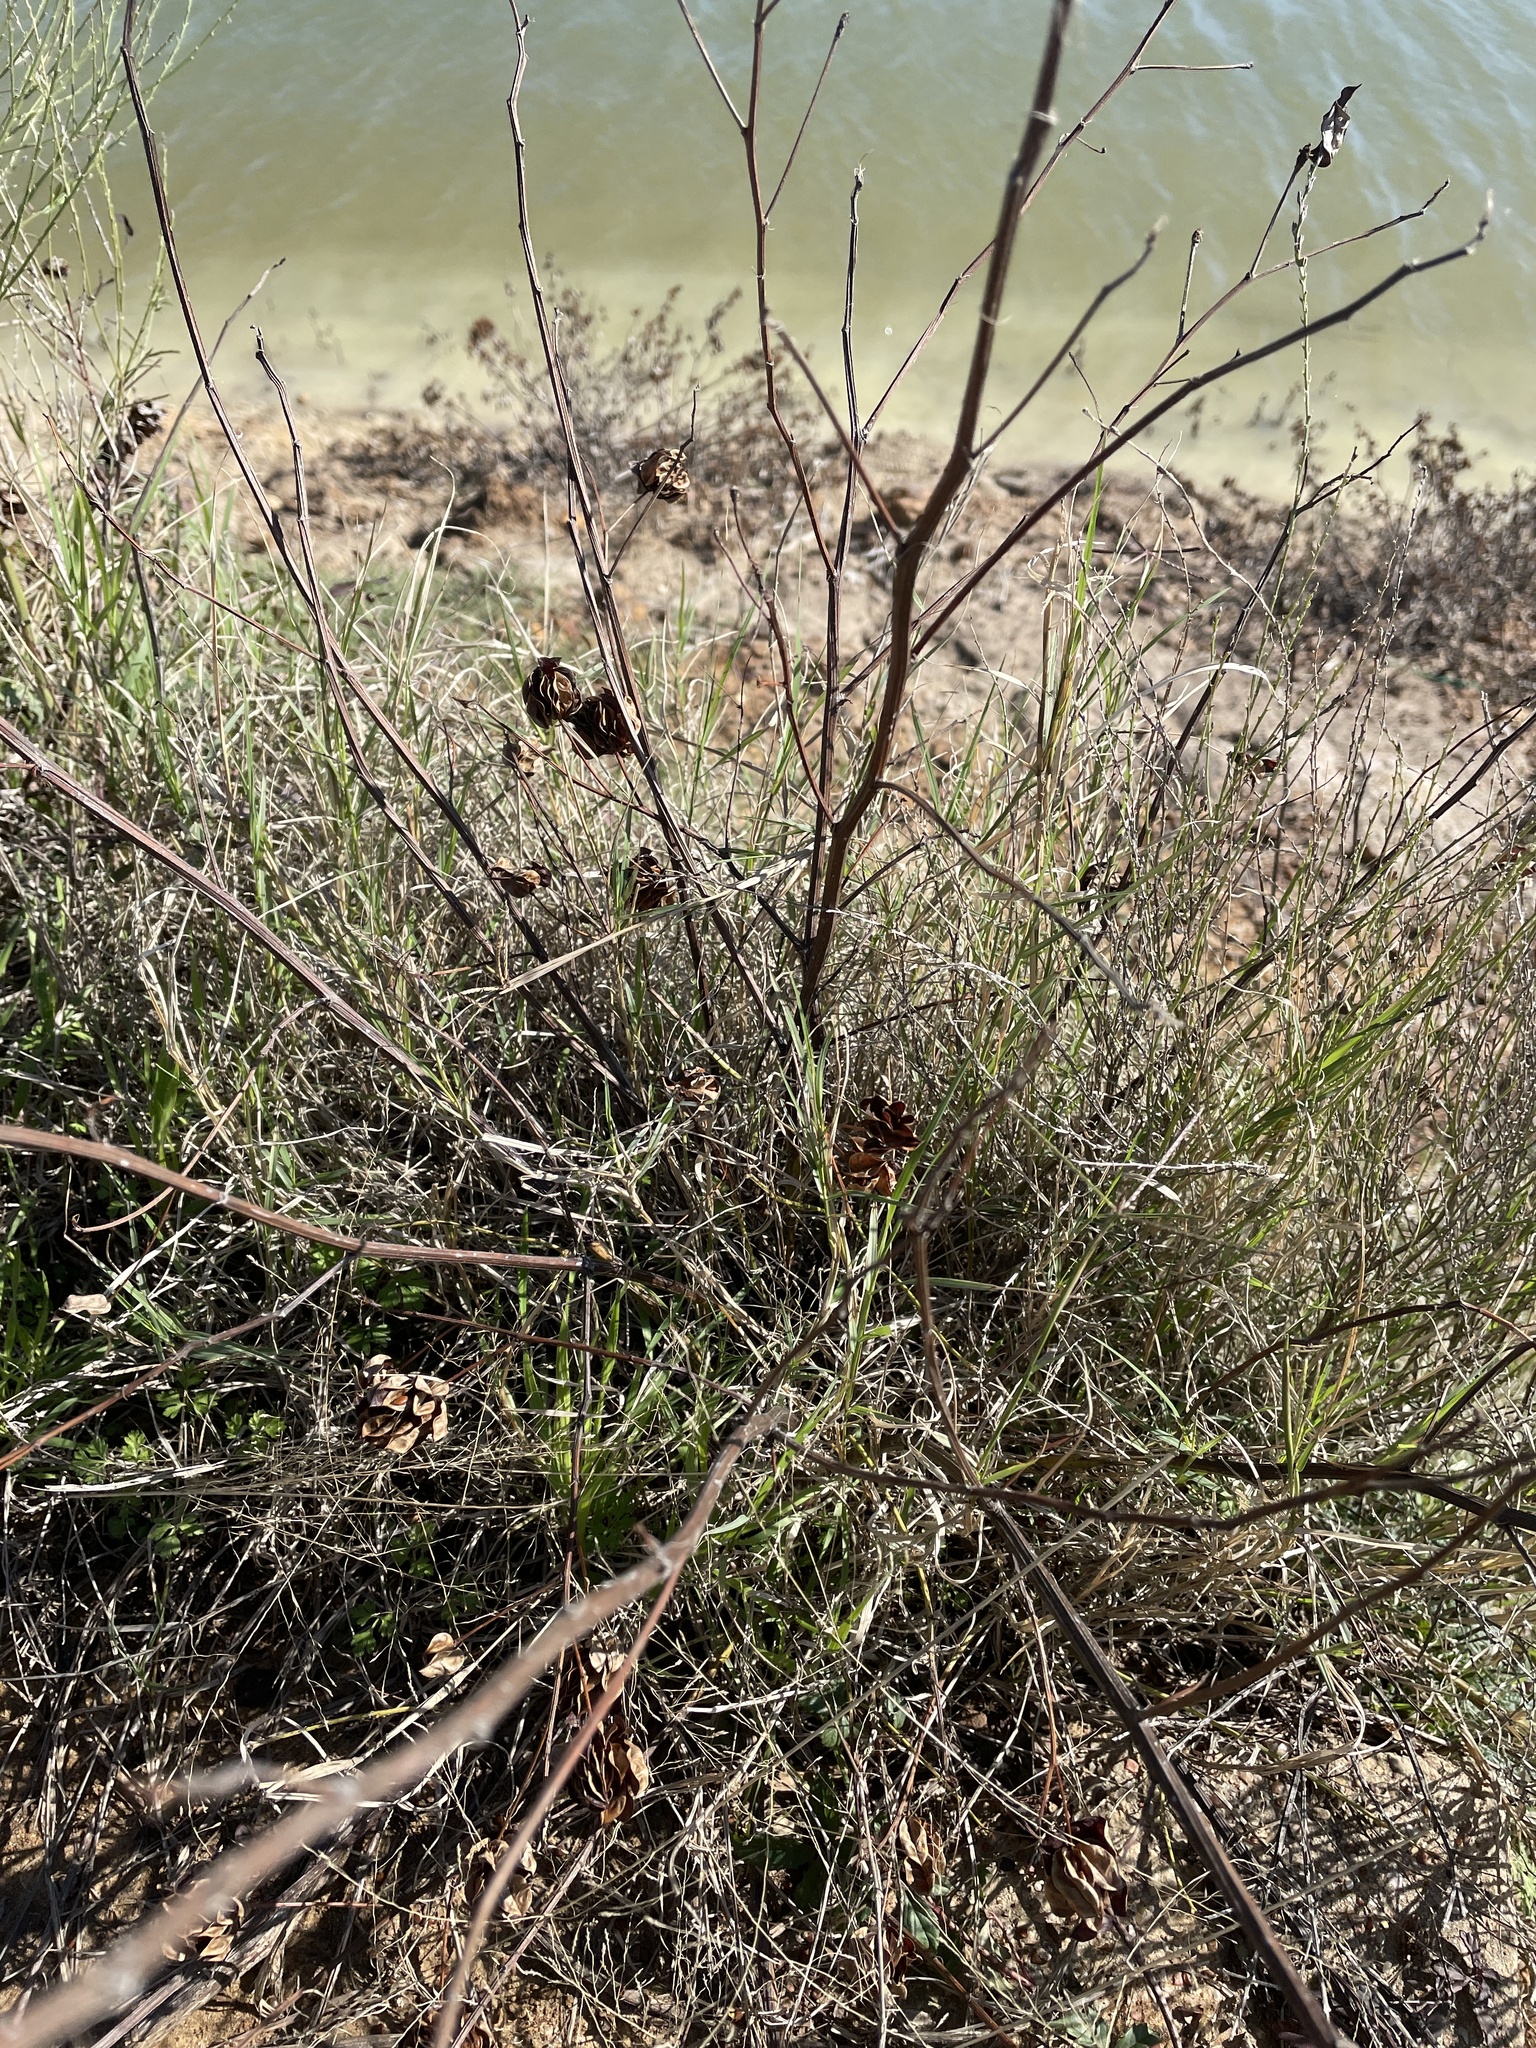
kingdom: Plantae
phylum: Tracheophyta
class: Magnoliopsida
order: Fabales
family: Fabaceae
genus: Desmanthus
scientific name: Desmanthus illinoensis
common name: Illinois bundle-flower
